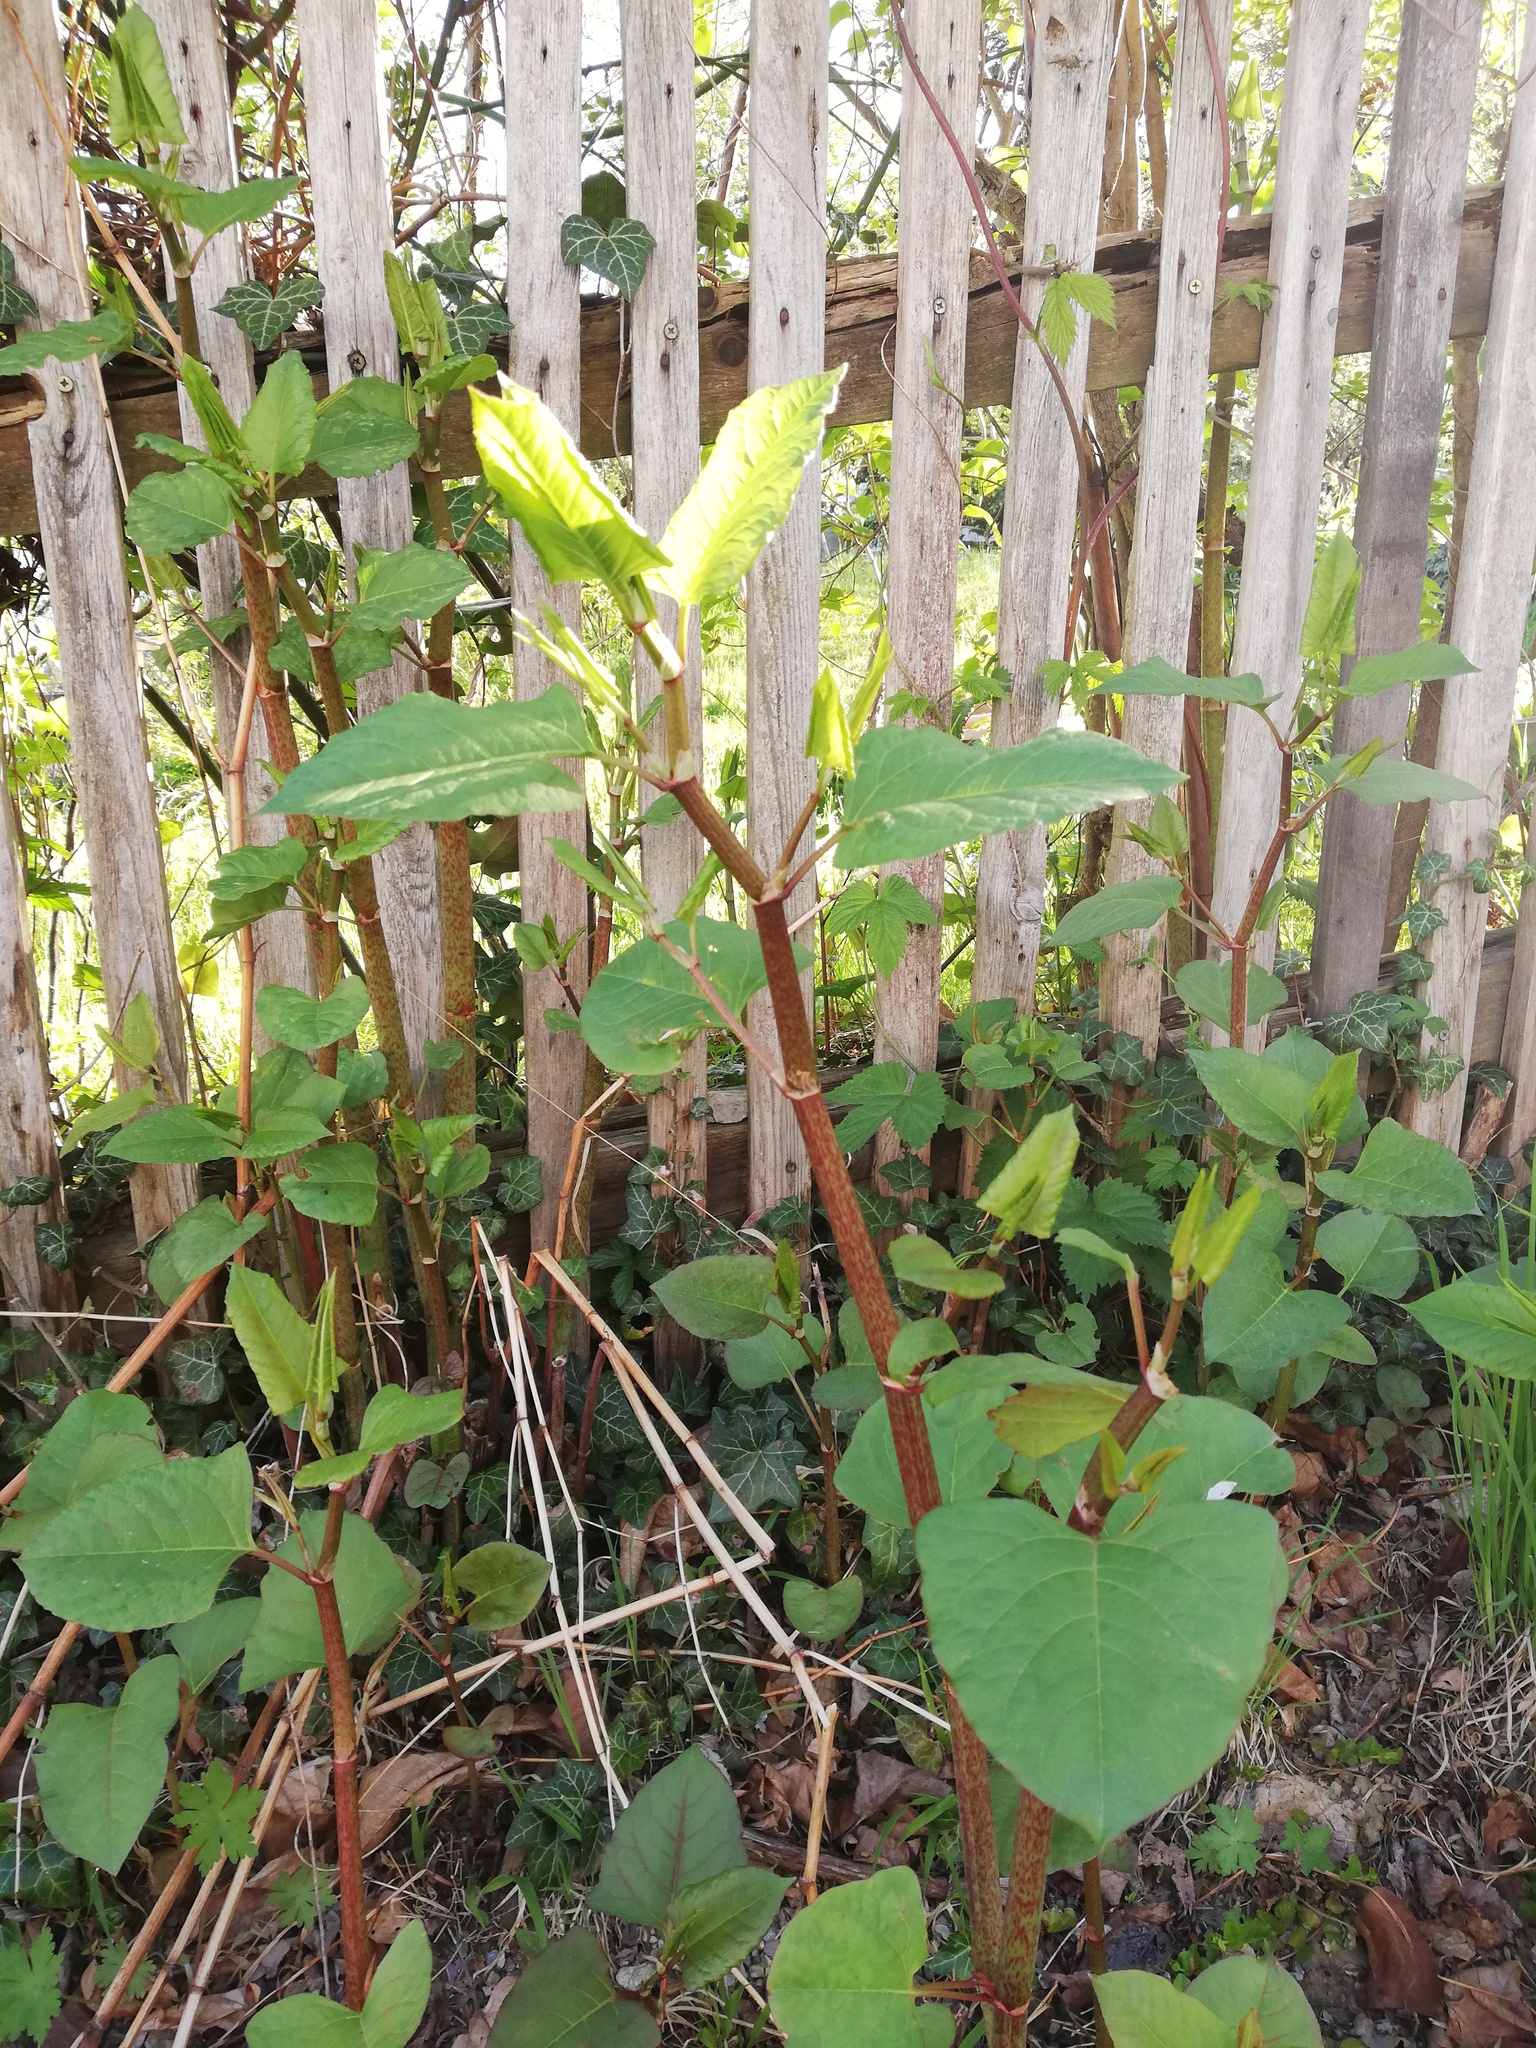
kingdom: Plantae
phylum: Tracheophyta
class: Magnoliopsida
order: Caryophyllales
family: Polygonaceae
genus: Reynoutria
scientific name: Reynoutria bohemica
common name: Bohemian knotweed
